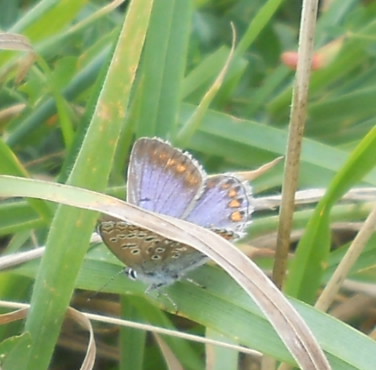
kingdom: Animalia
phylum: Arthropoda
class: Insecta
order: Lepidoptera
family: Lycaenidae
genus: Polyommatus
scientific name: Polyommatus icarus
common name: Common blue
